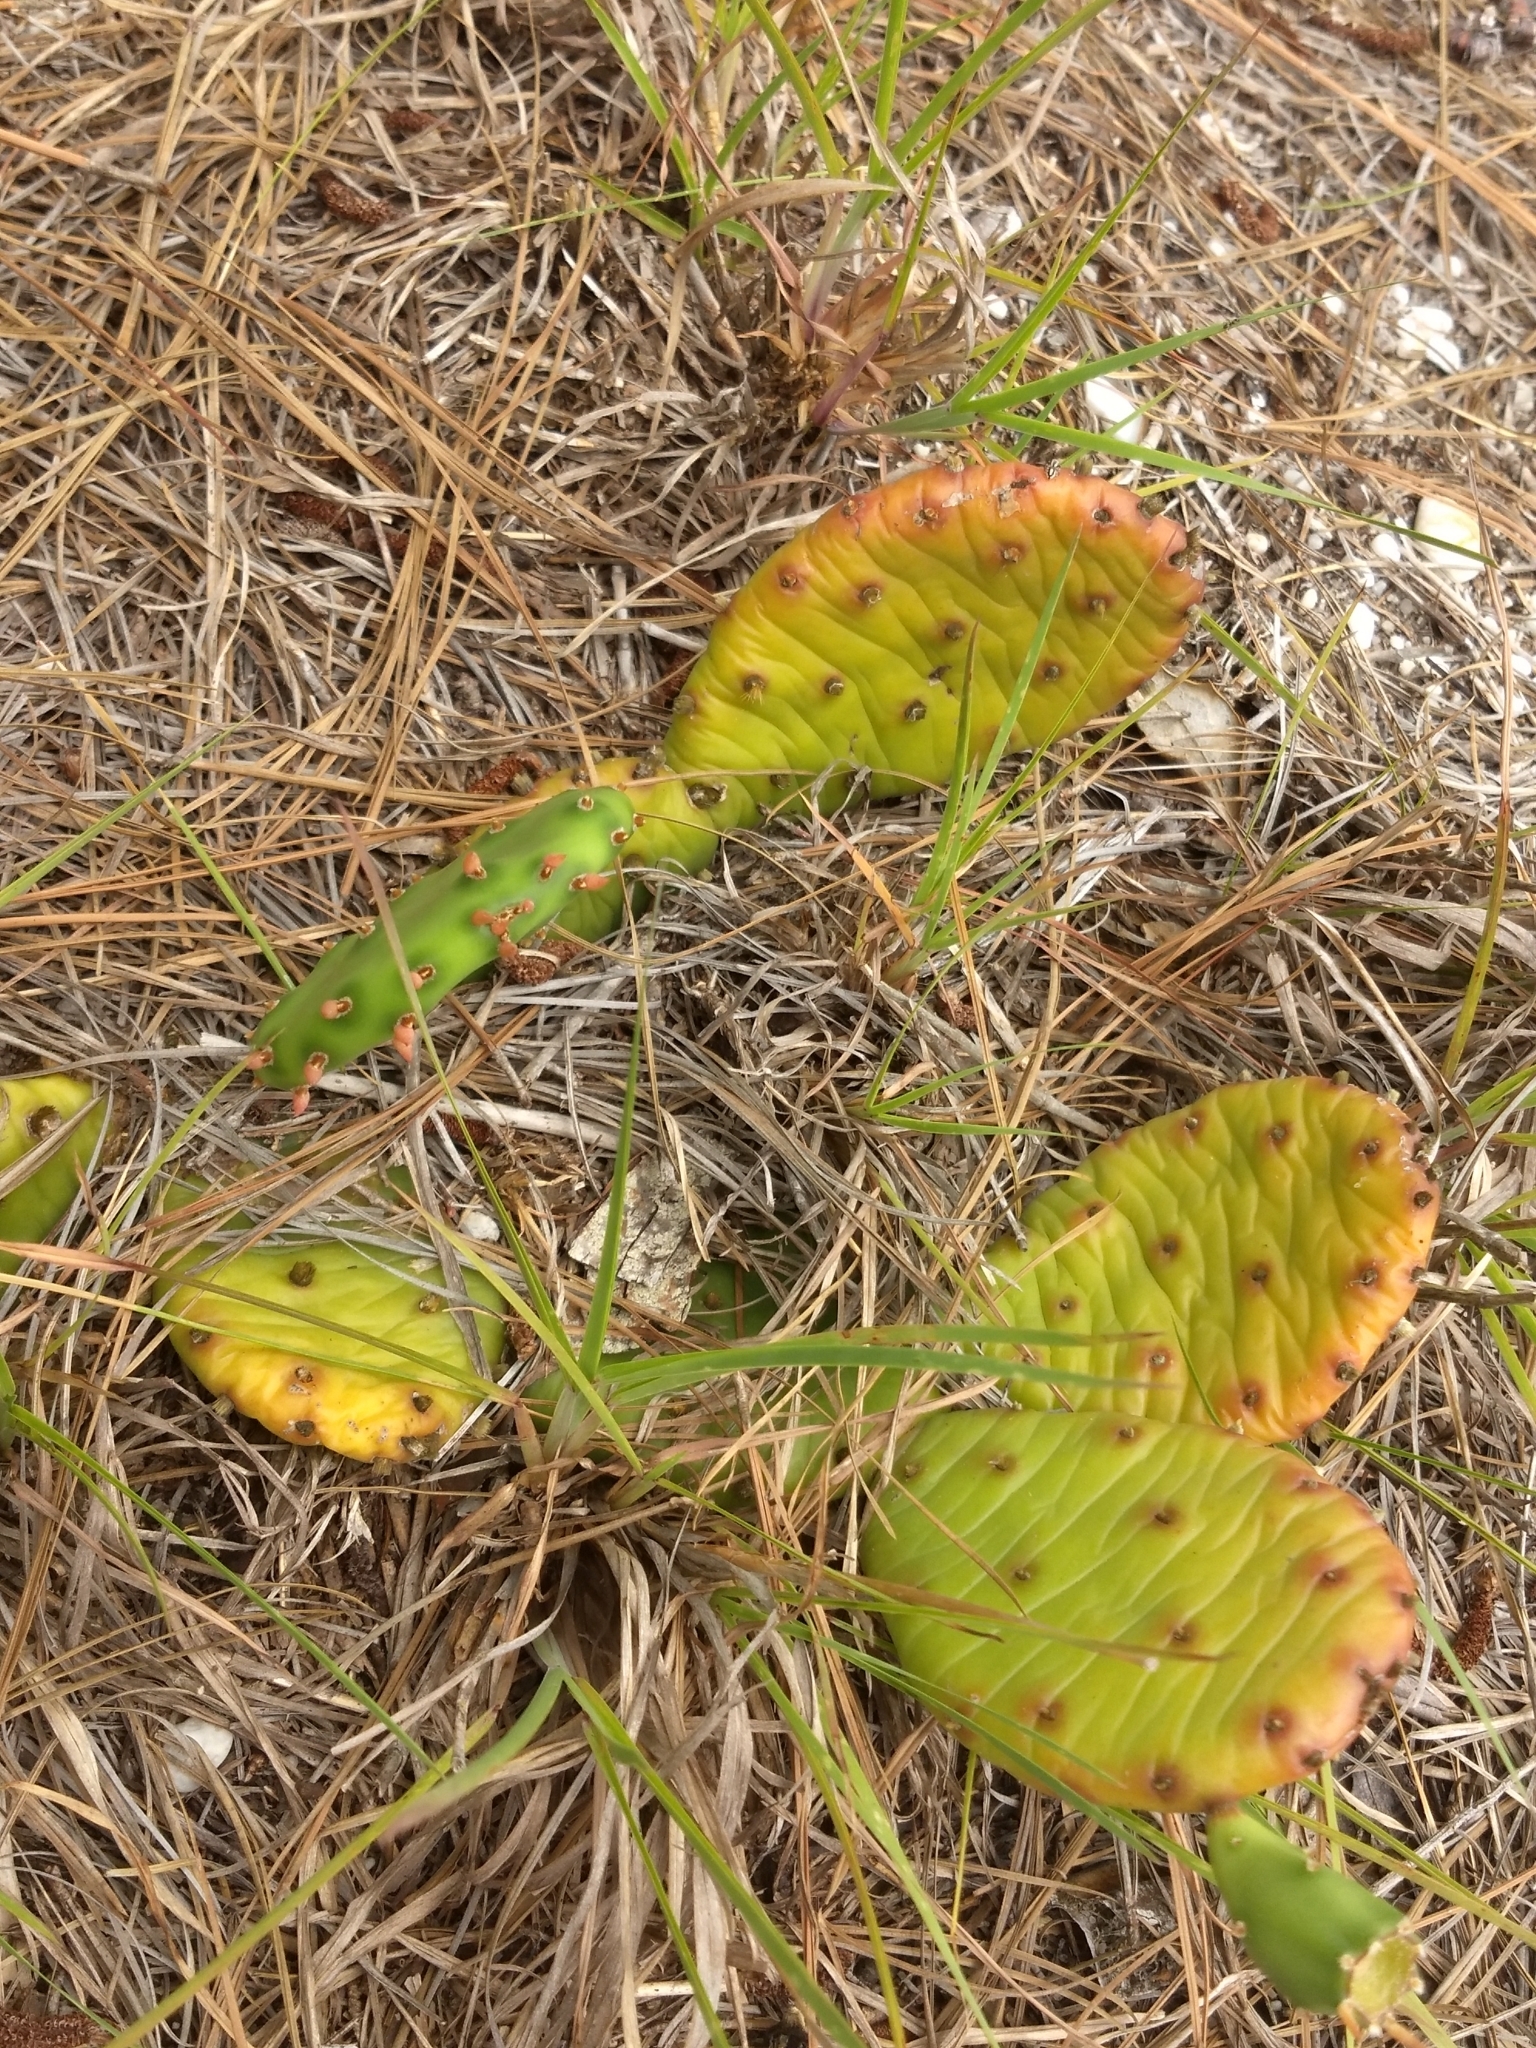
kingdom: Plantae
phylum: Tracheophyta
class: Magnoliopsida
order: Caryophyllales
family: Cactaceae
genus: Opuntia
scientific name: Opuntia humifusa
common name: Eastern prickly-pear
